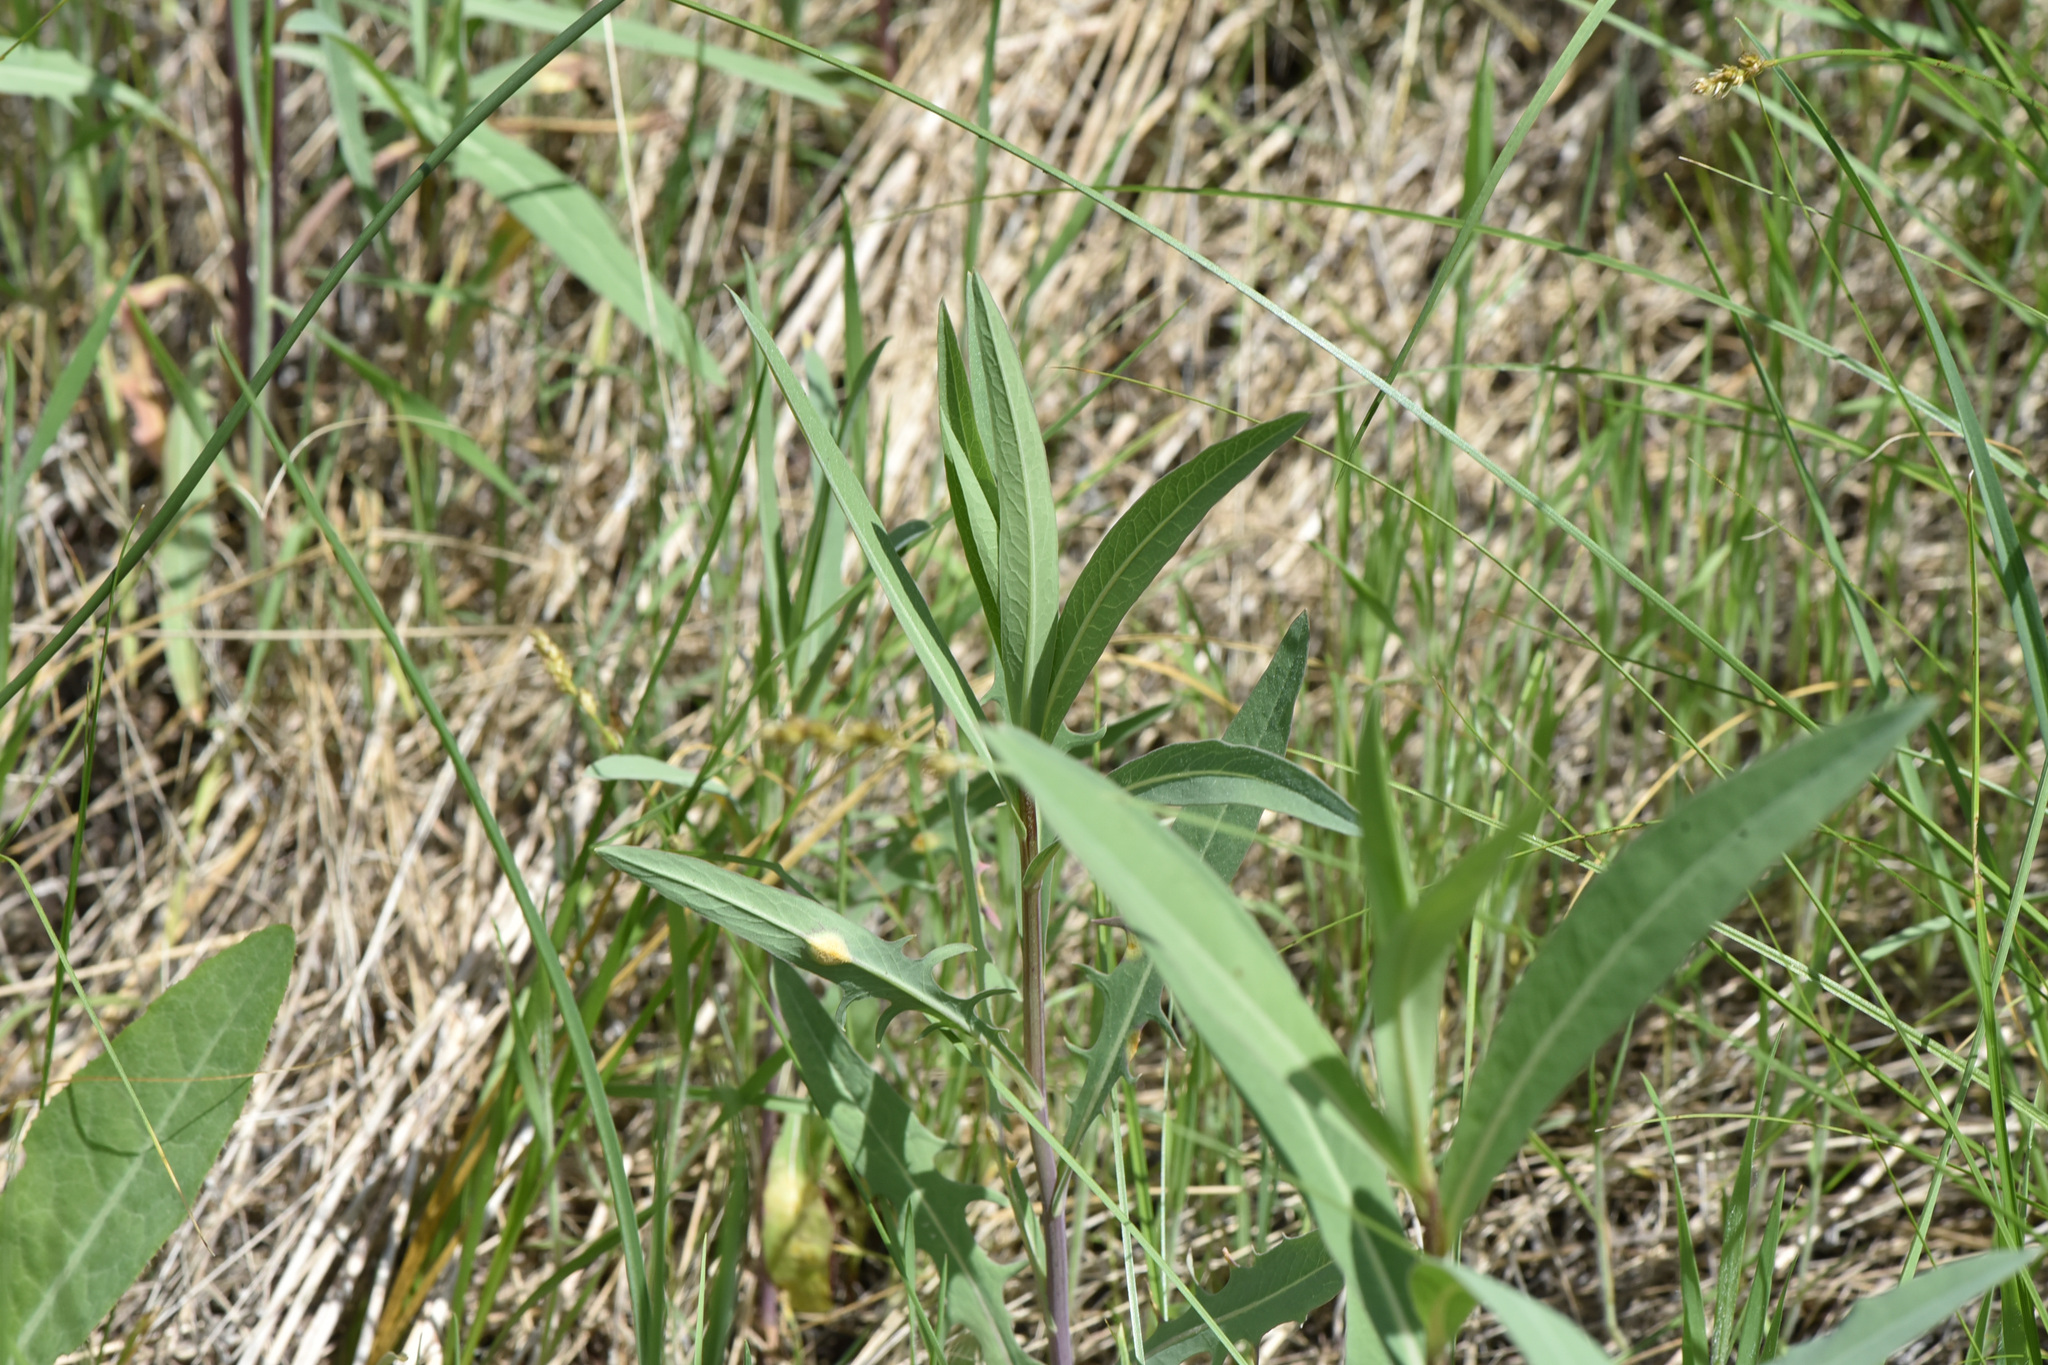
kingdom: Plantae
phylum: Tracheophyta
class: Magnoliopsida
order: Asterales
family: Asteraceae
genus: Lactuca
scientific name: Lactuca pulchella
